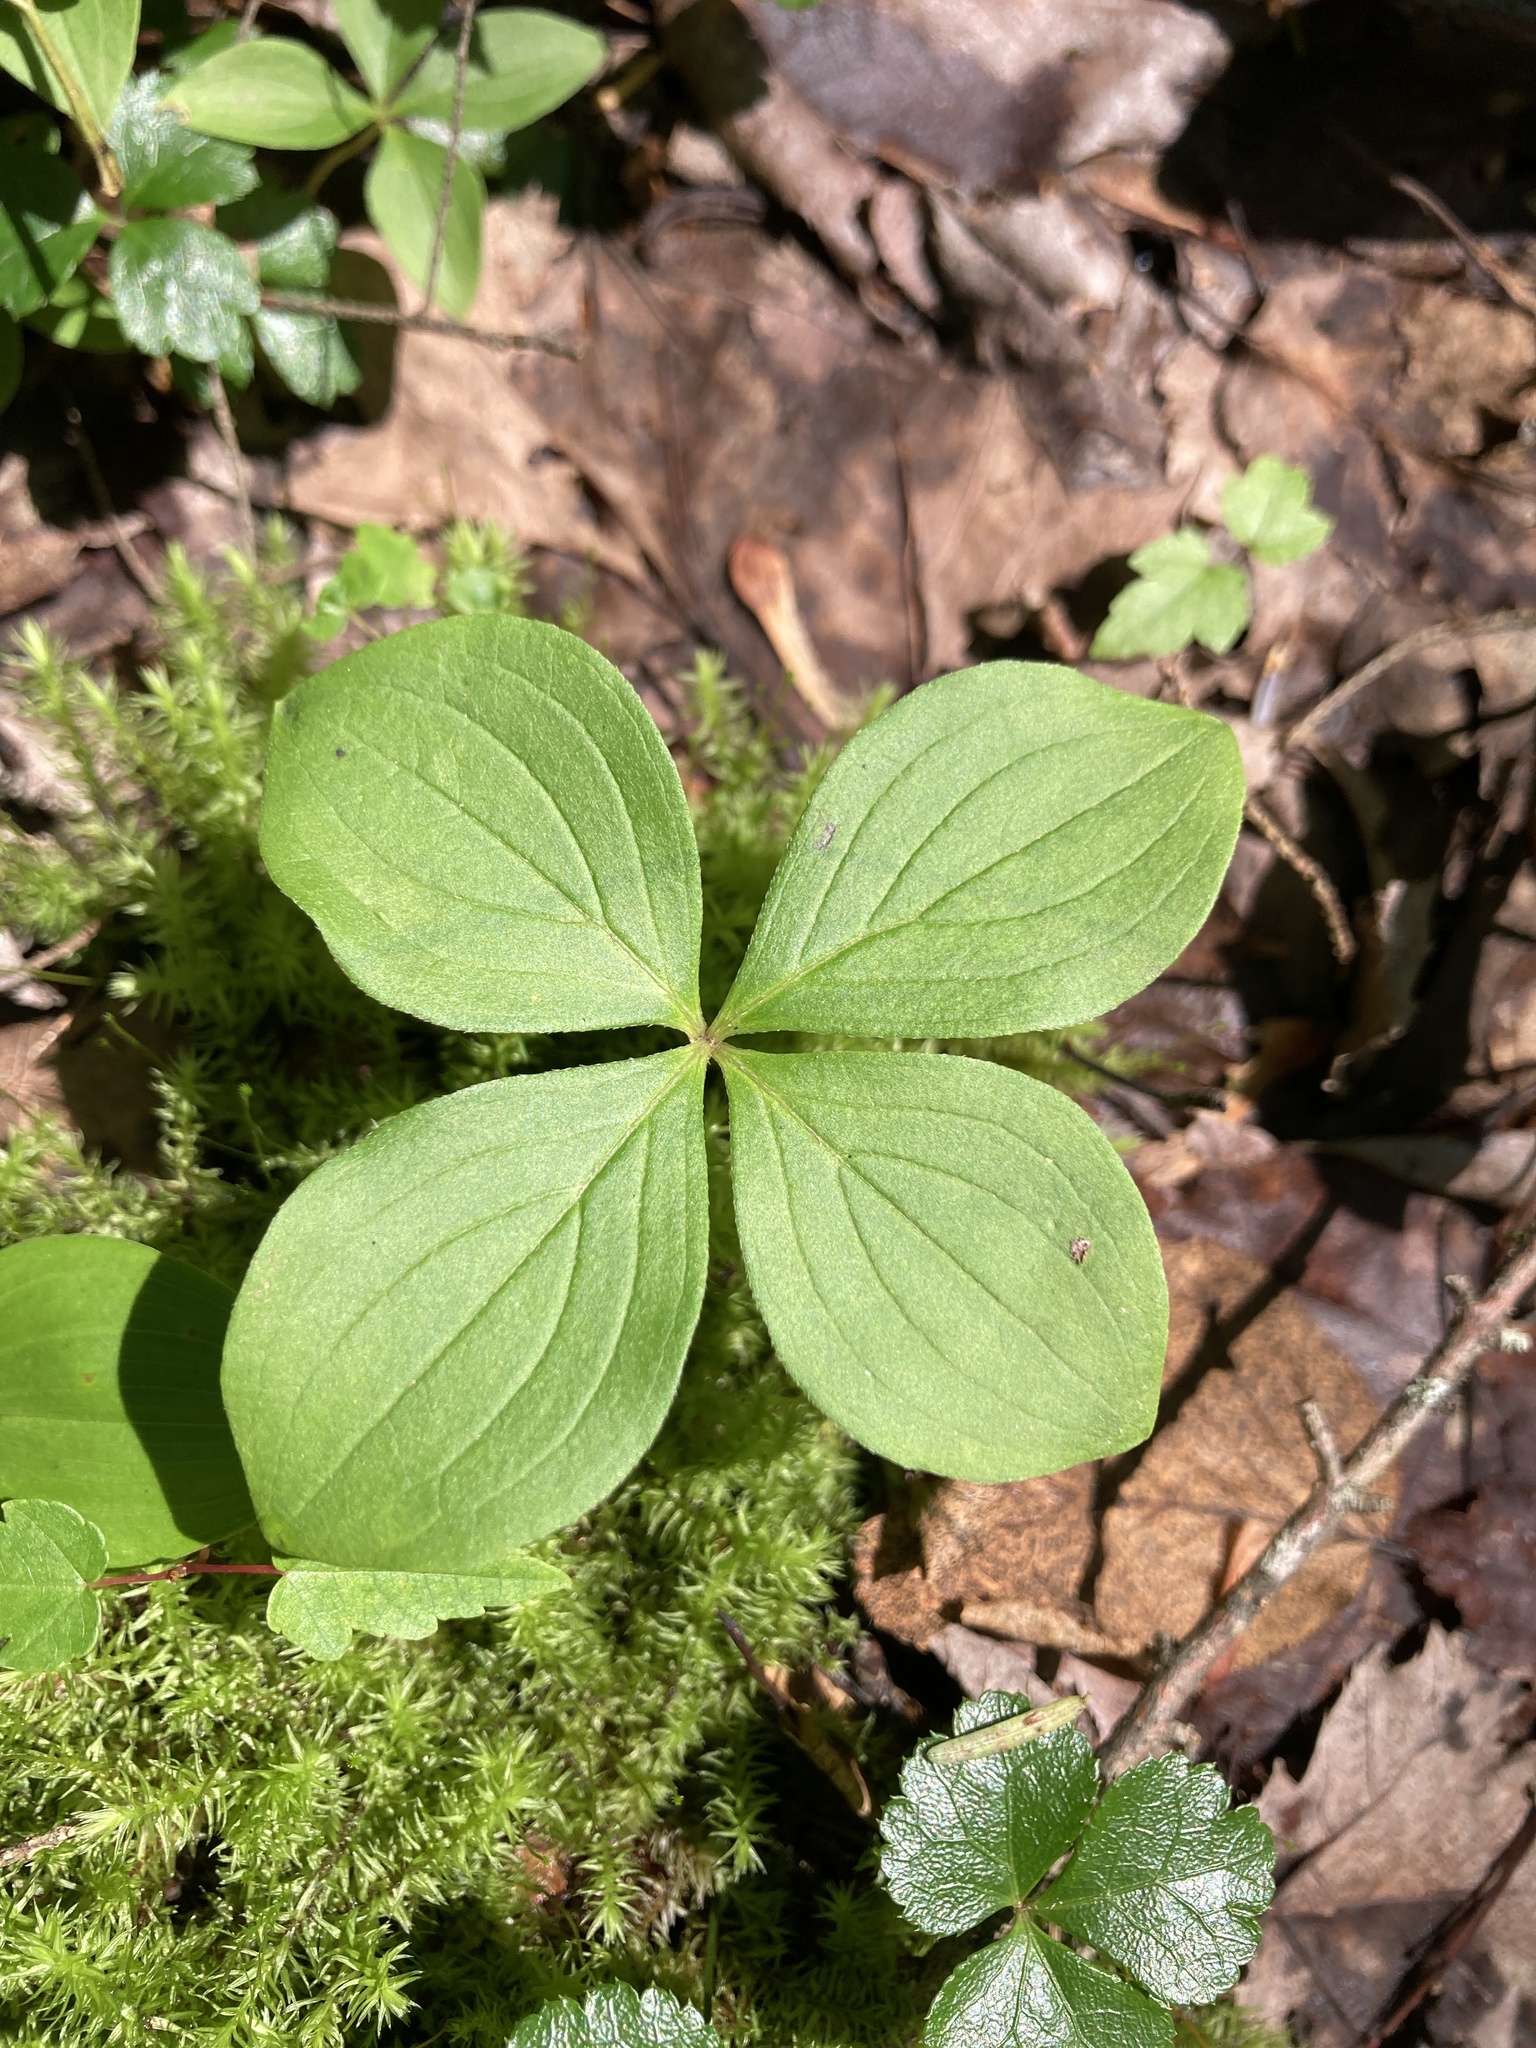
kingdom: Plantae
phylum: Tracheophyta
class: Magnoliopsida
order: Cornales
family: Cornaceae
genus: Cornus
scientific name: Cornus canadensis
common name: Creeping dogwood
